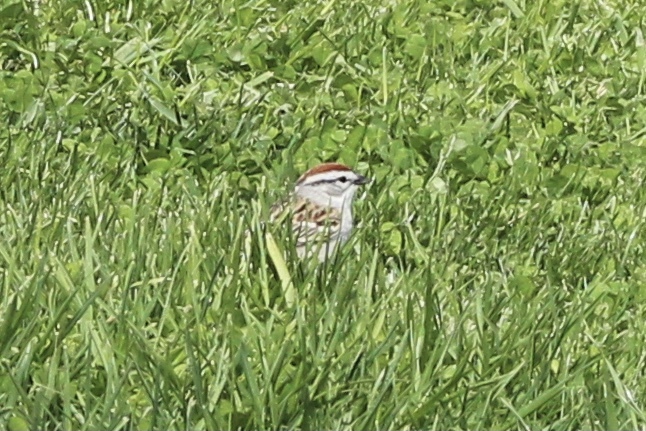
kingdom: Animalia
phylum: Chordata
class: Aves
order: Passeriformes
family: Passerellidae
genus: Spizella
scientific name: Spizella passerina
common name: Chipping sparrow
